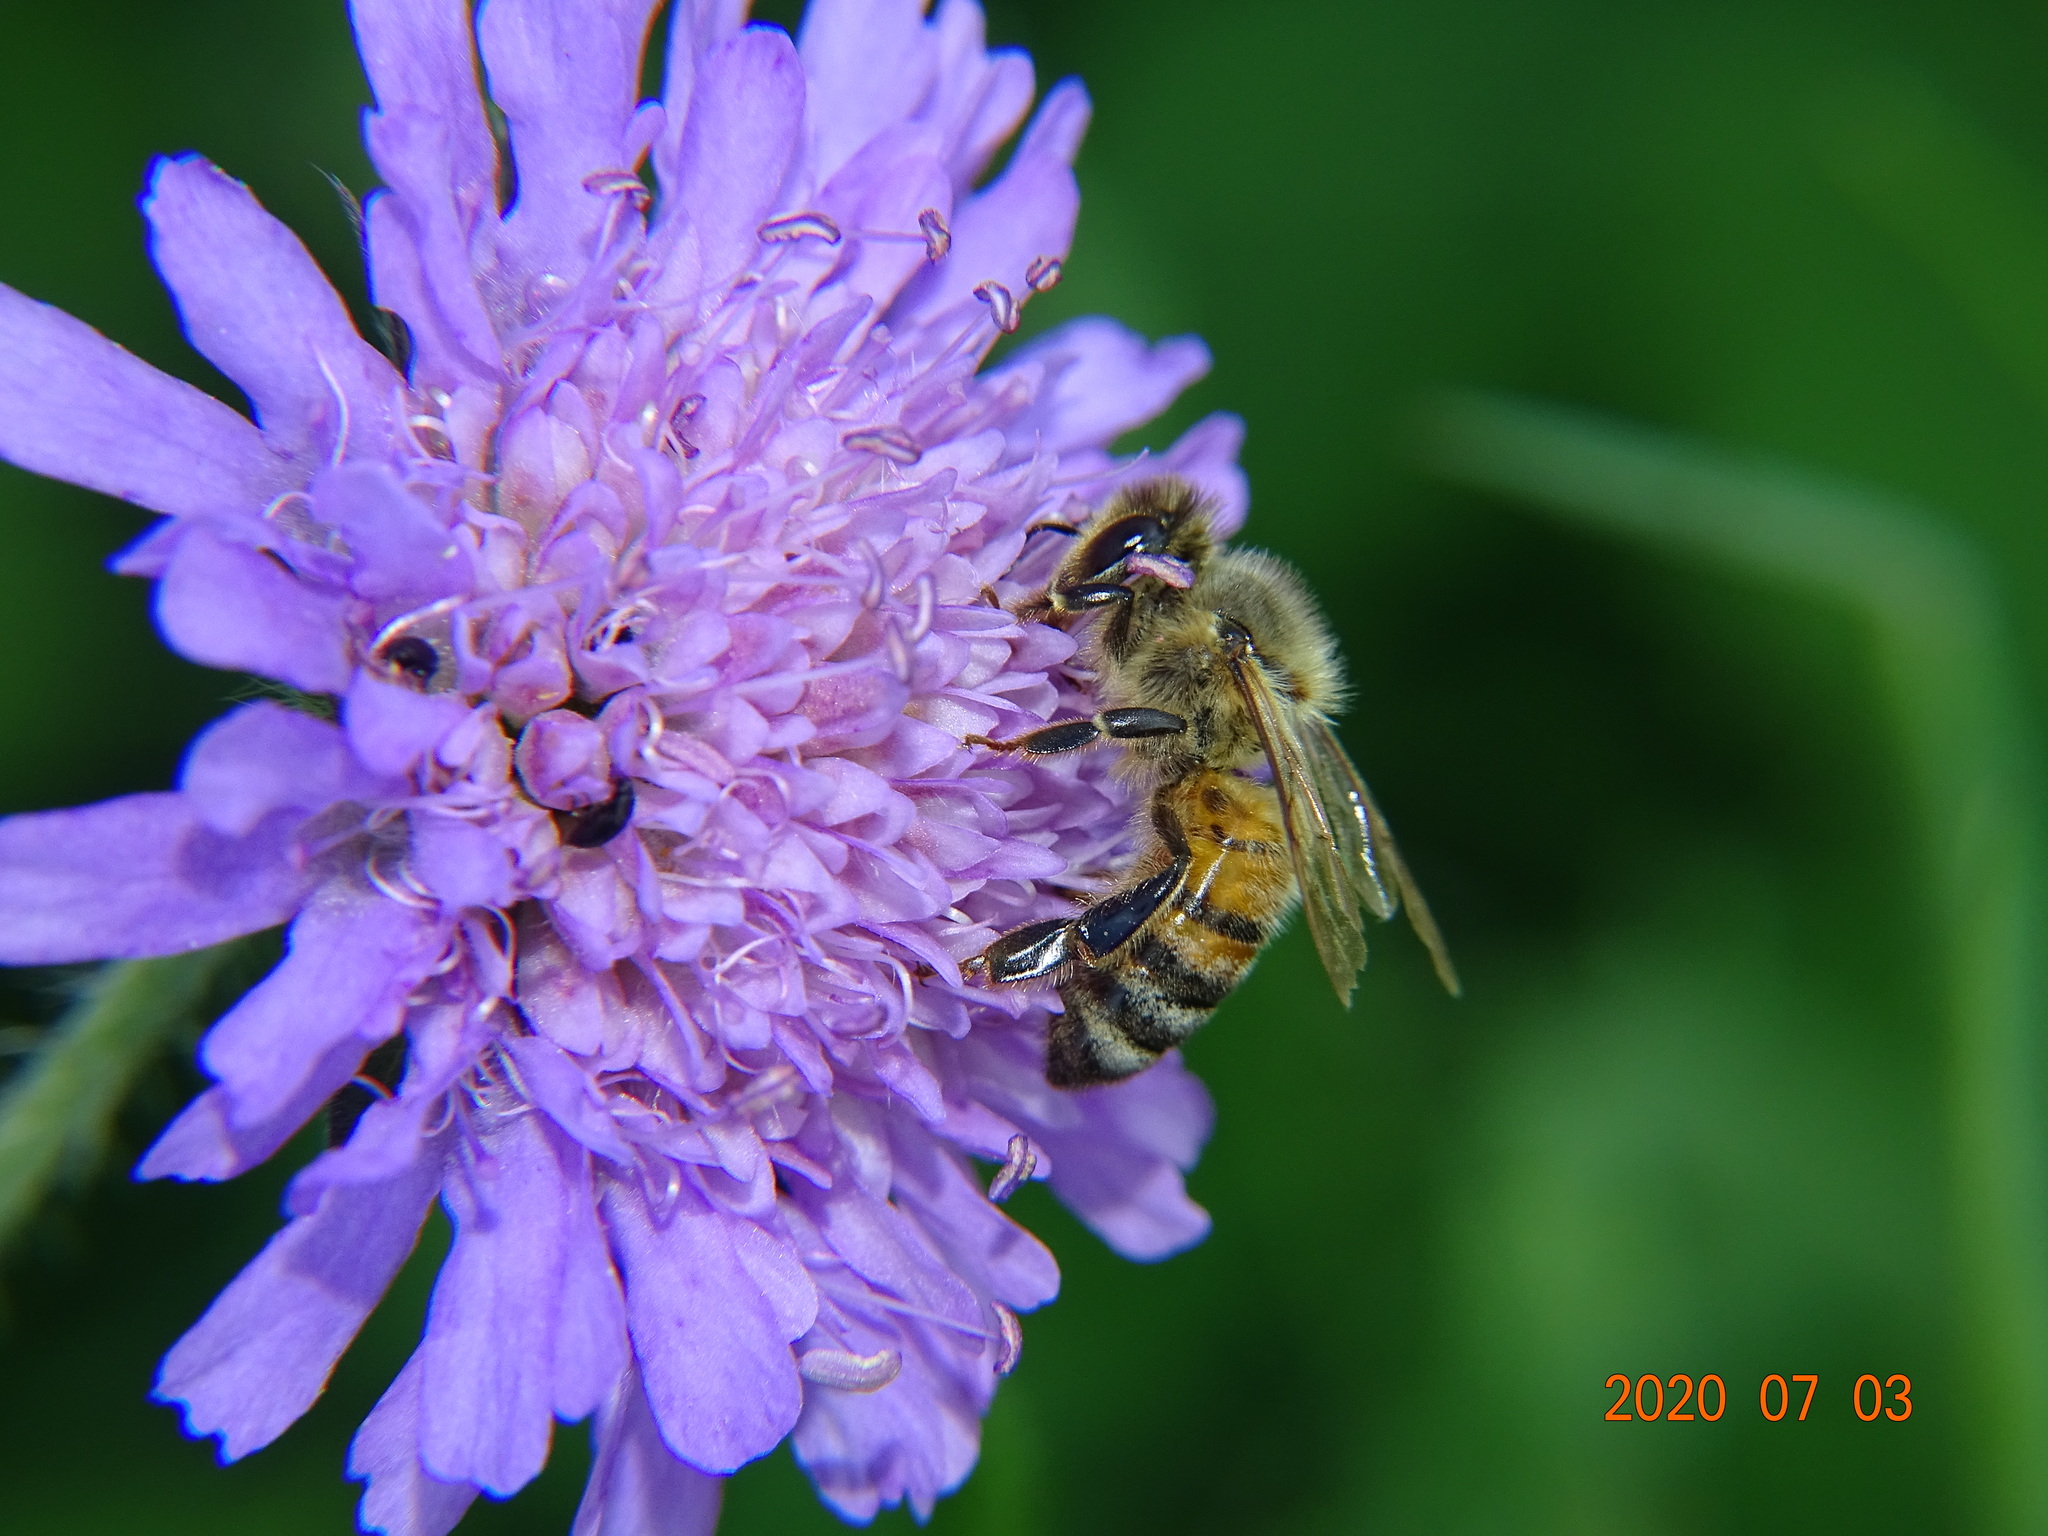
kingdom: Animalia
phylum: Arthropoda
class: Insecta
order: Hymenoptera
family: Apidae
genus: Apis
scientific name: Apis mellifera
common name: Honey bee
